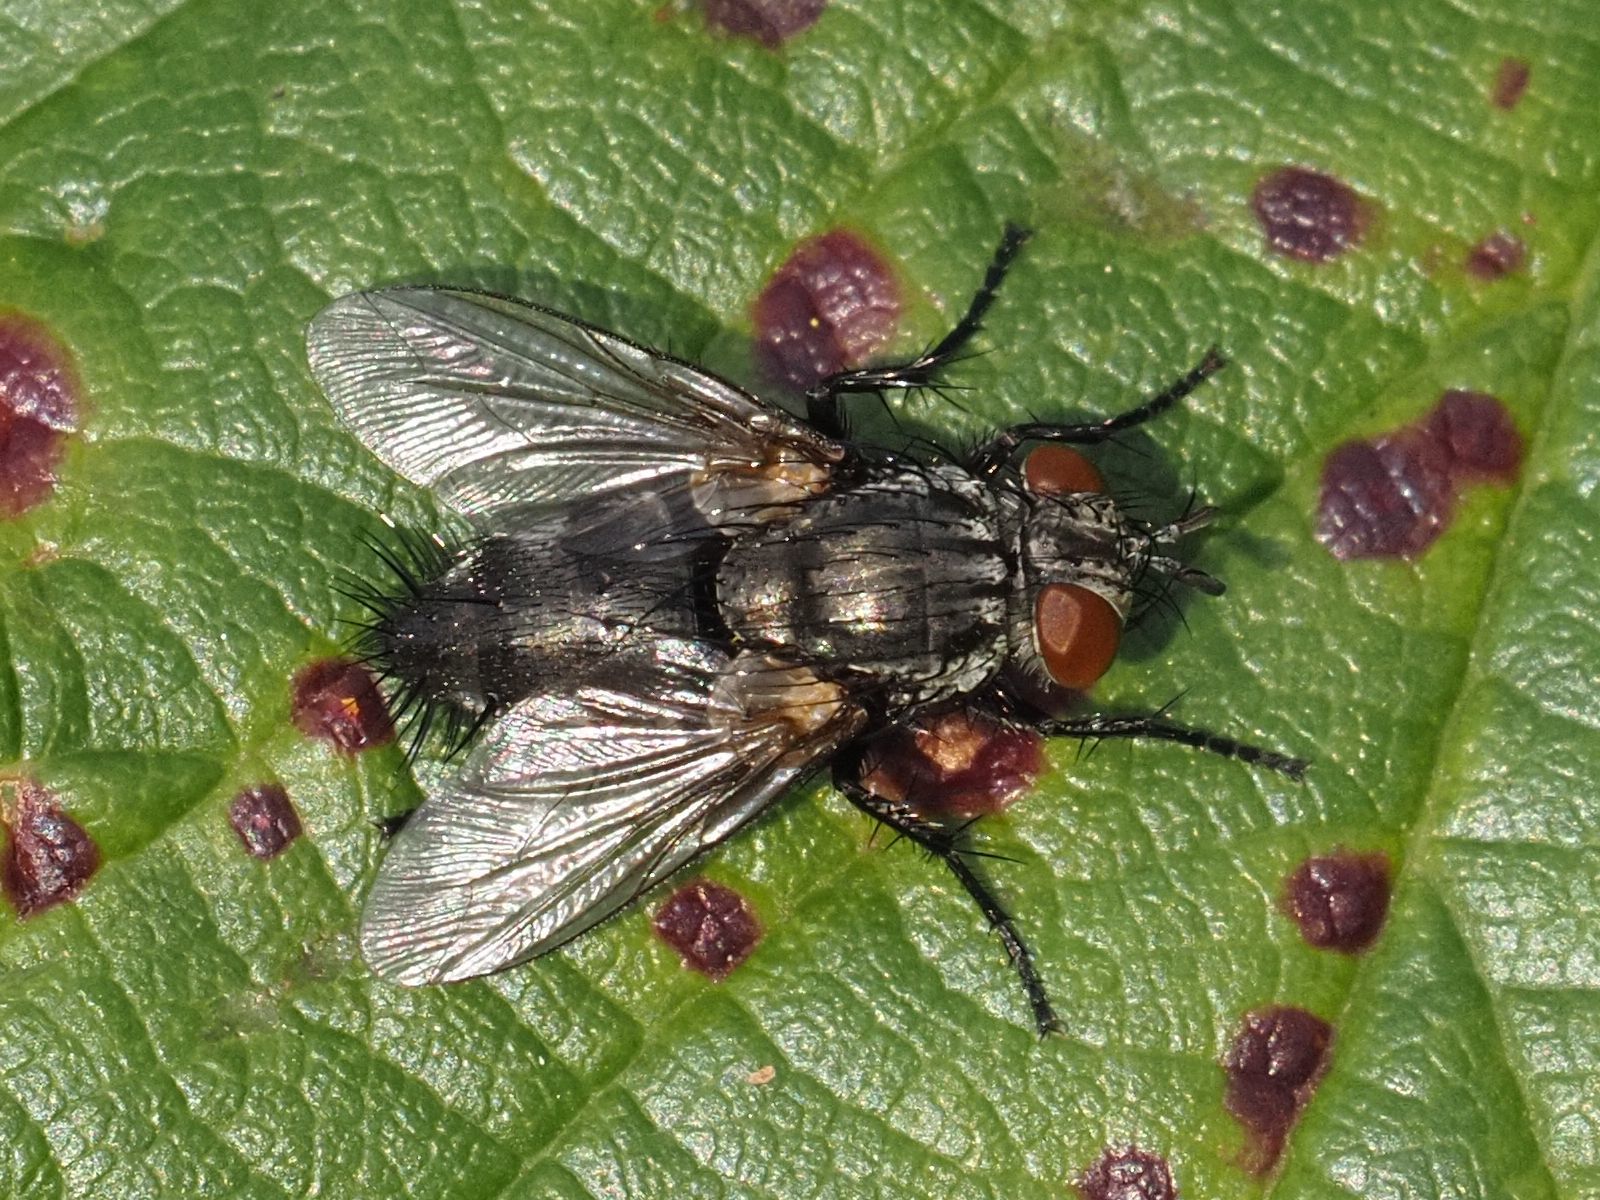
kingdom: Animalia
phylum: Arthropoda
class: Insecta
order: Diptera
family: Tachinidae
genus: Voria
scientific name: Voria ruralis
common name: Parasitic fly
